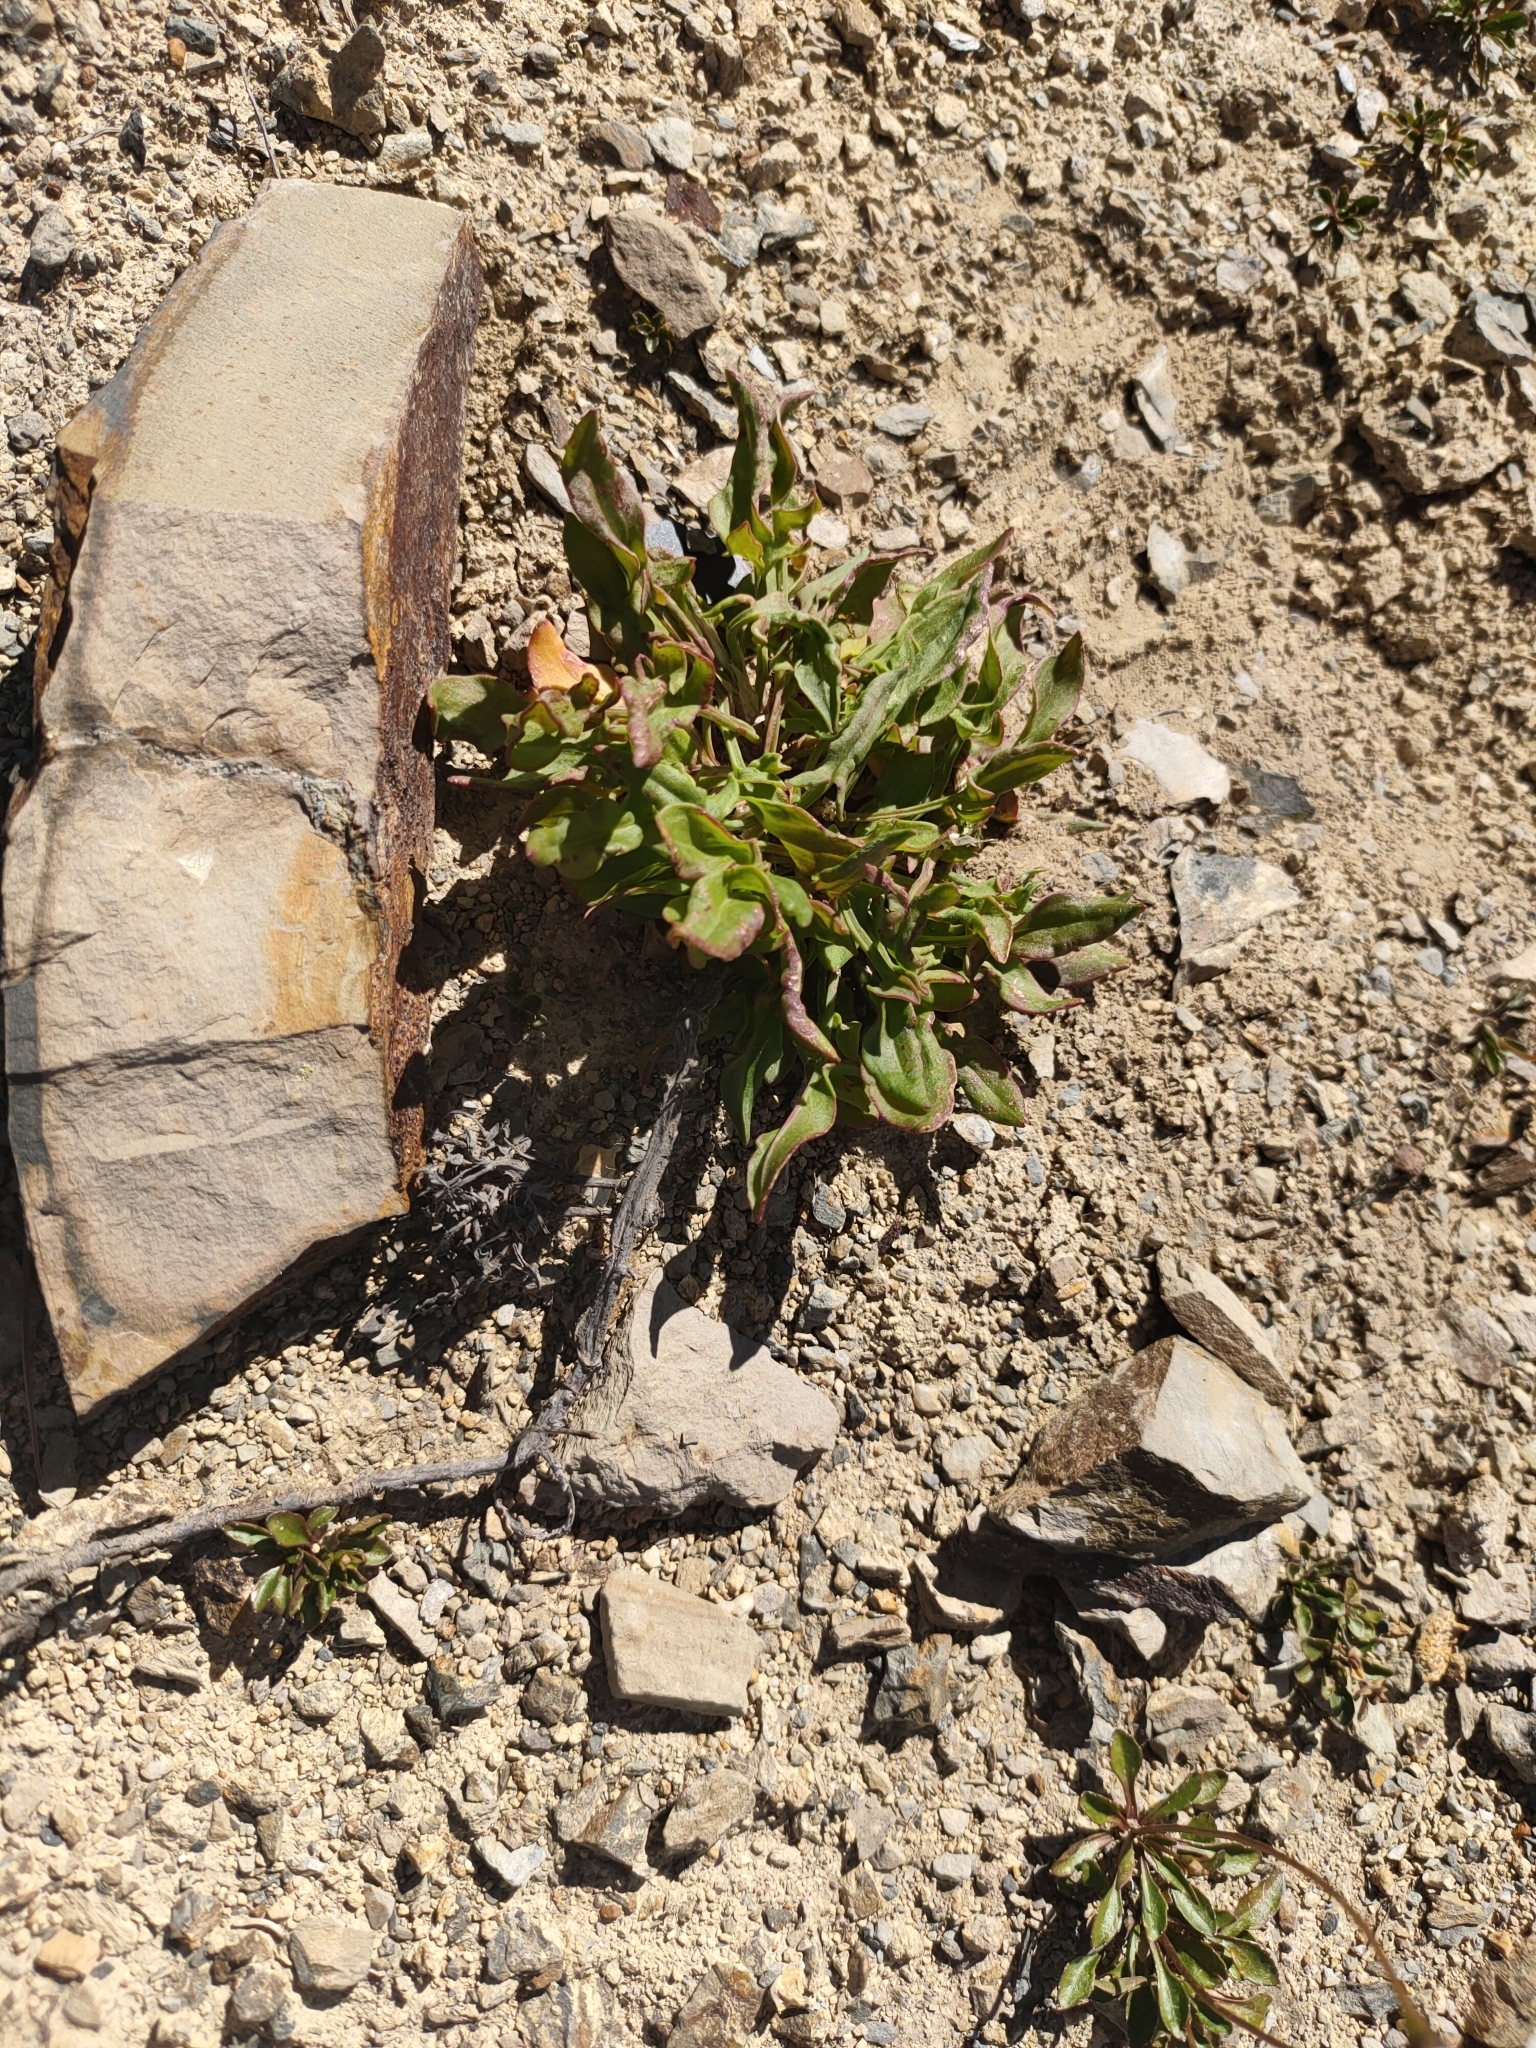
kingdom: Plantae
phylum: Tracheophyta
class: Magnoliopsida
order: Caryophyllales
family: Polygonaceae
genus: Rumex
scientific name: Rumex acetosella
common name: Common sheep sorrel
